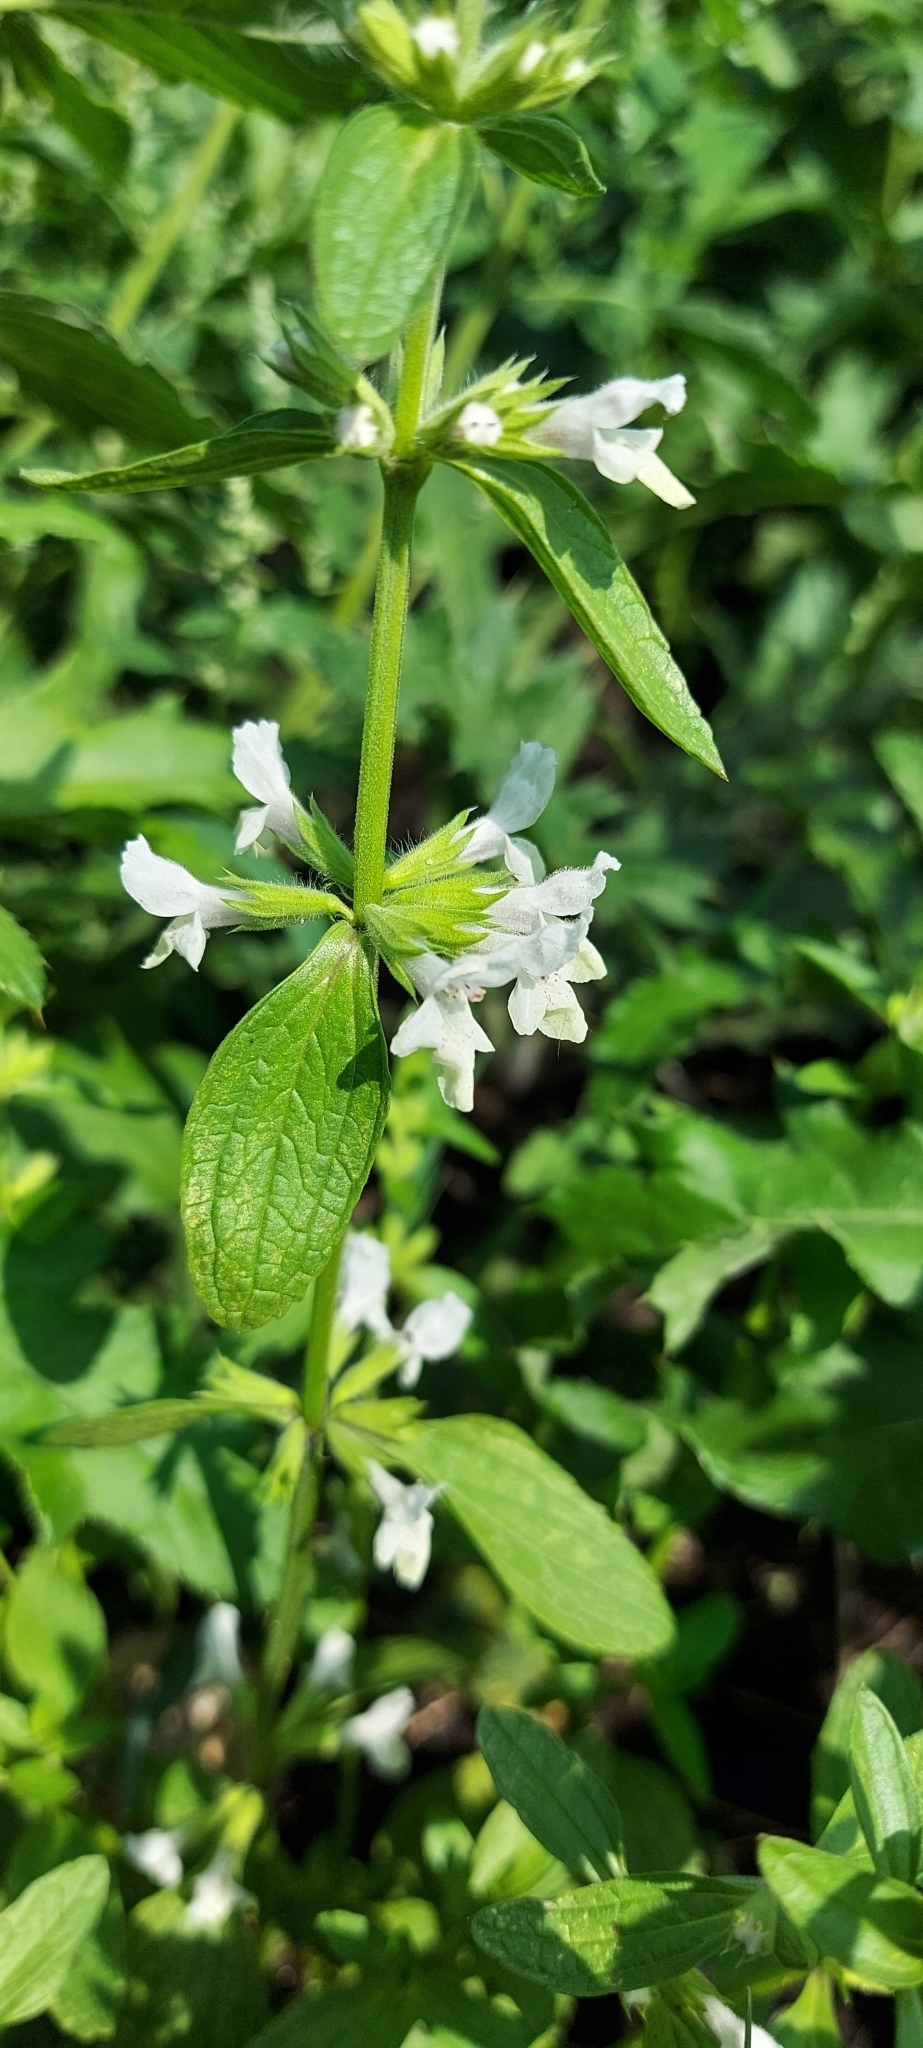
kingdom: Plantae
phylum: Tracheophyta
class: Magnoliopsida
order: Lamiales
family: Lamiaceae
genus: Stachys
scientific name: Stachys annua
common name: Annual yellow-woundwort
